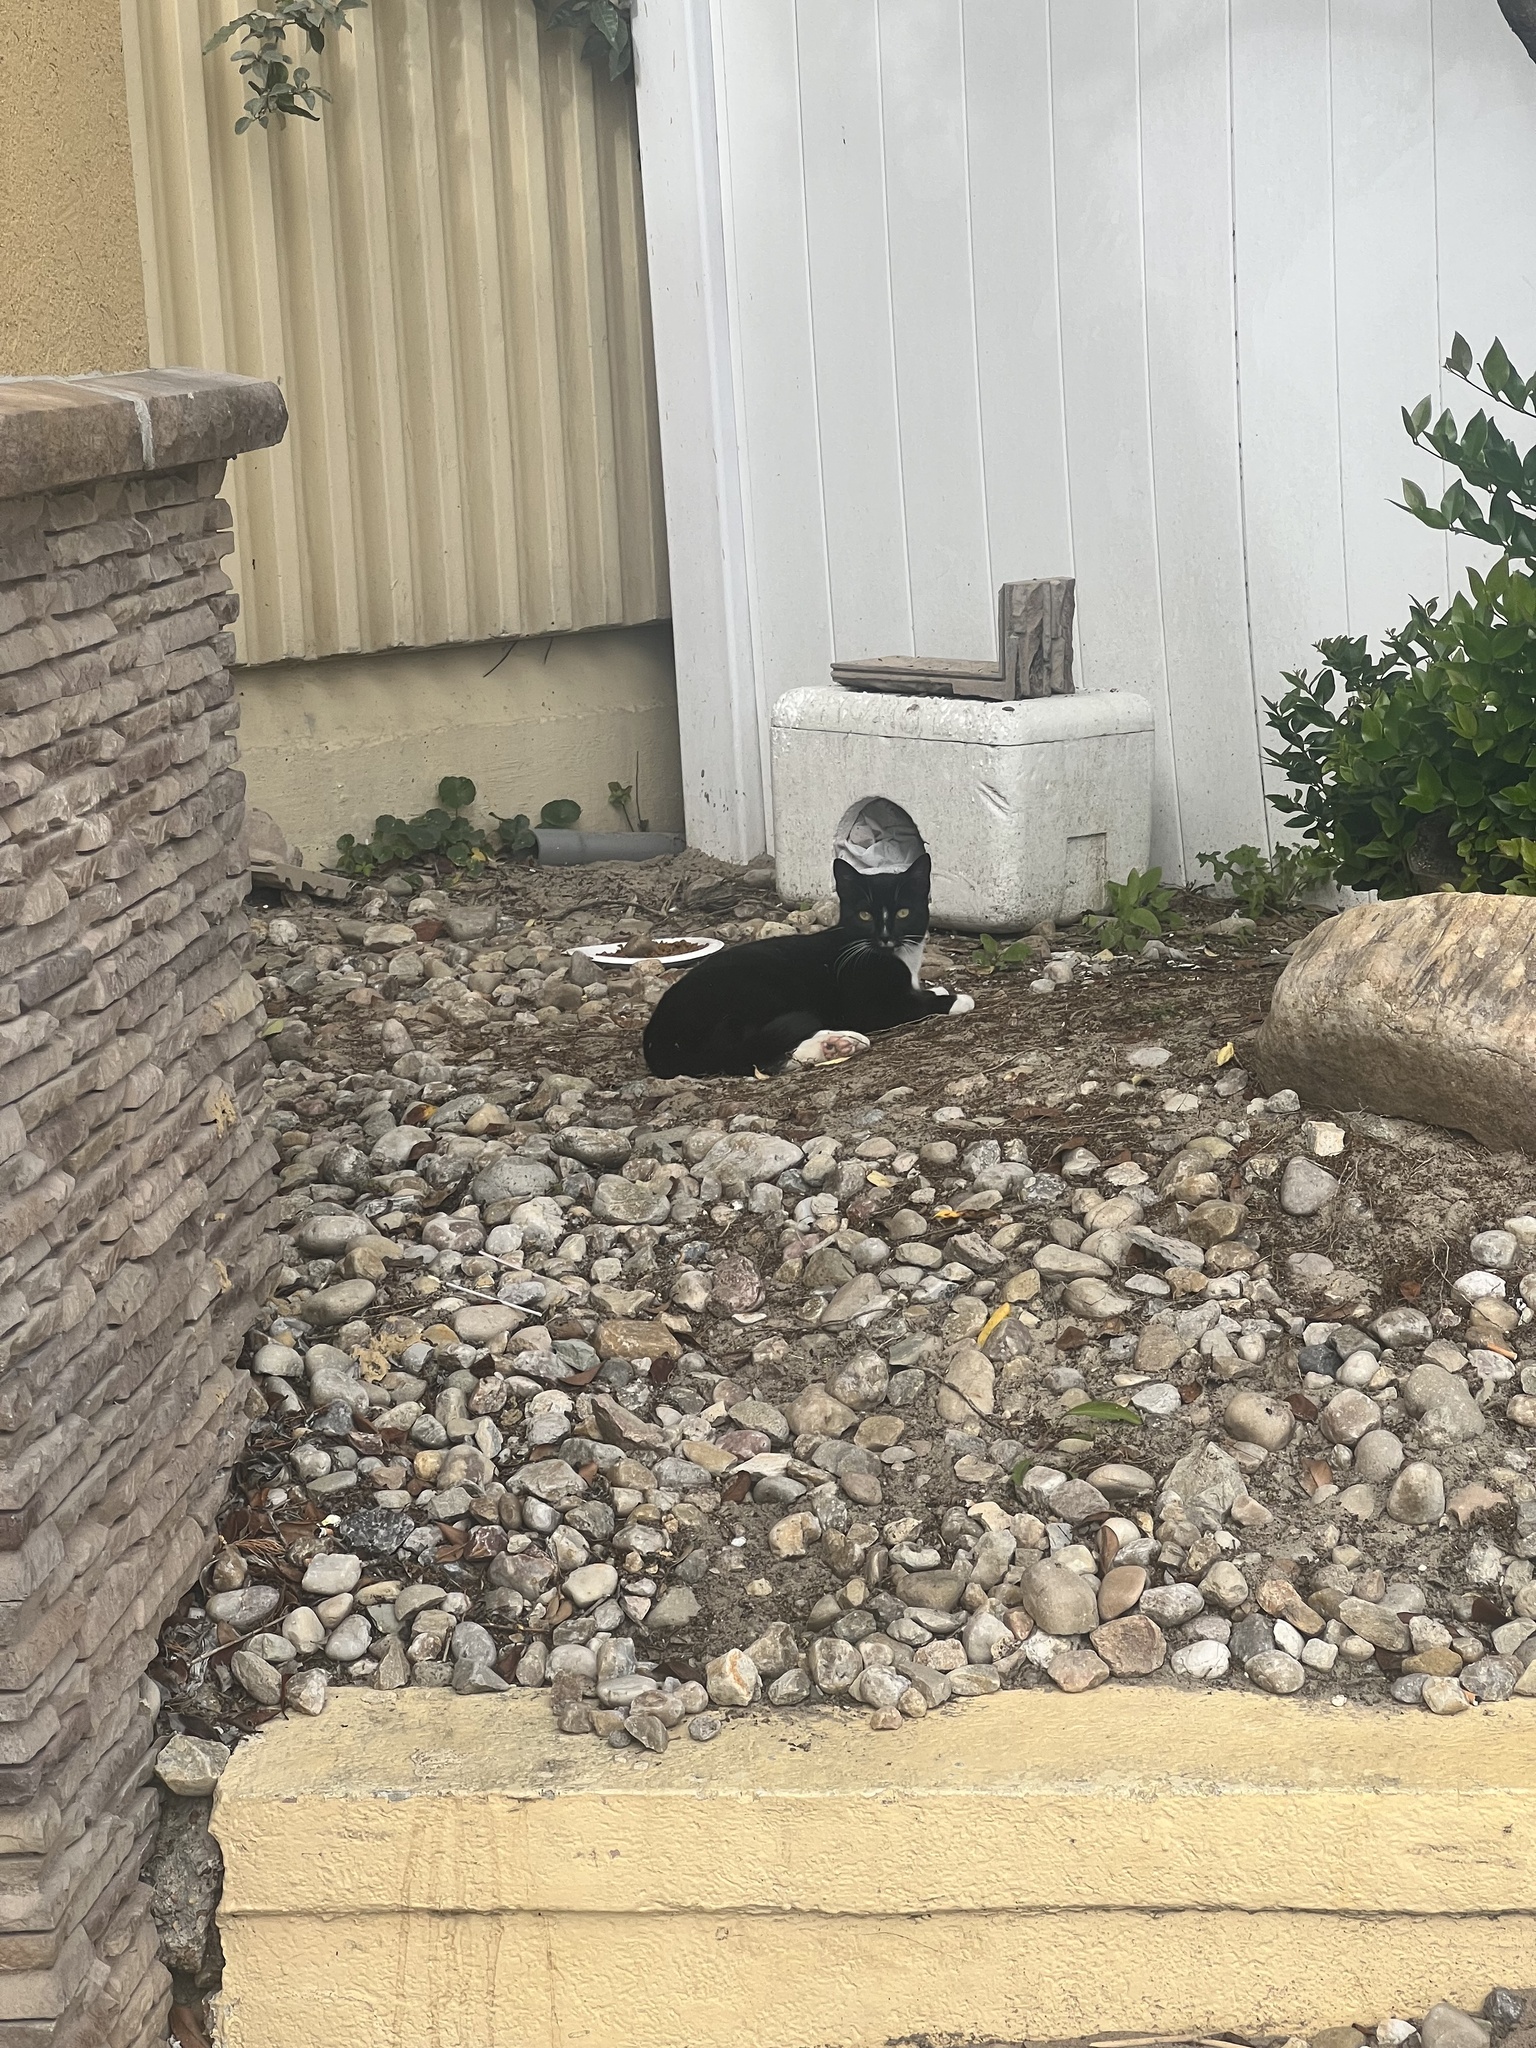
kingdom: Animalia
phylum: Chordata
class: Mammalia
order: Carnivora
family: Felidae
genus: Felis
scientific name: Felis catus
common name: Domestic cat
